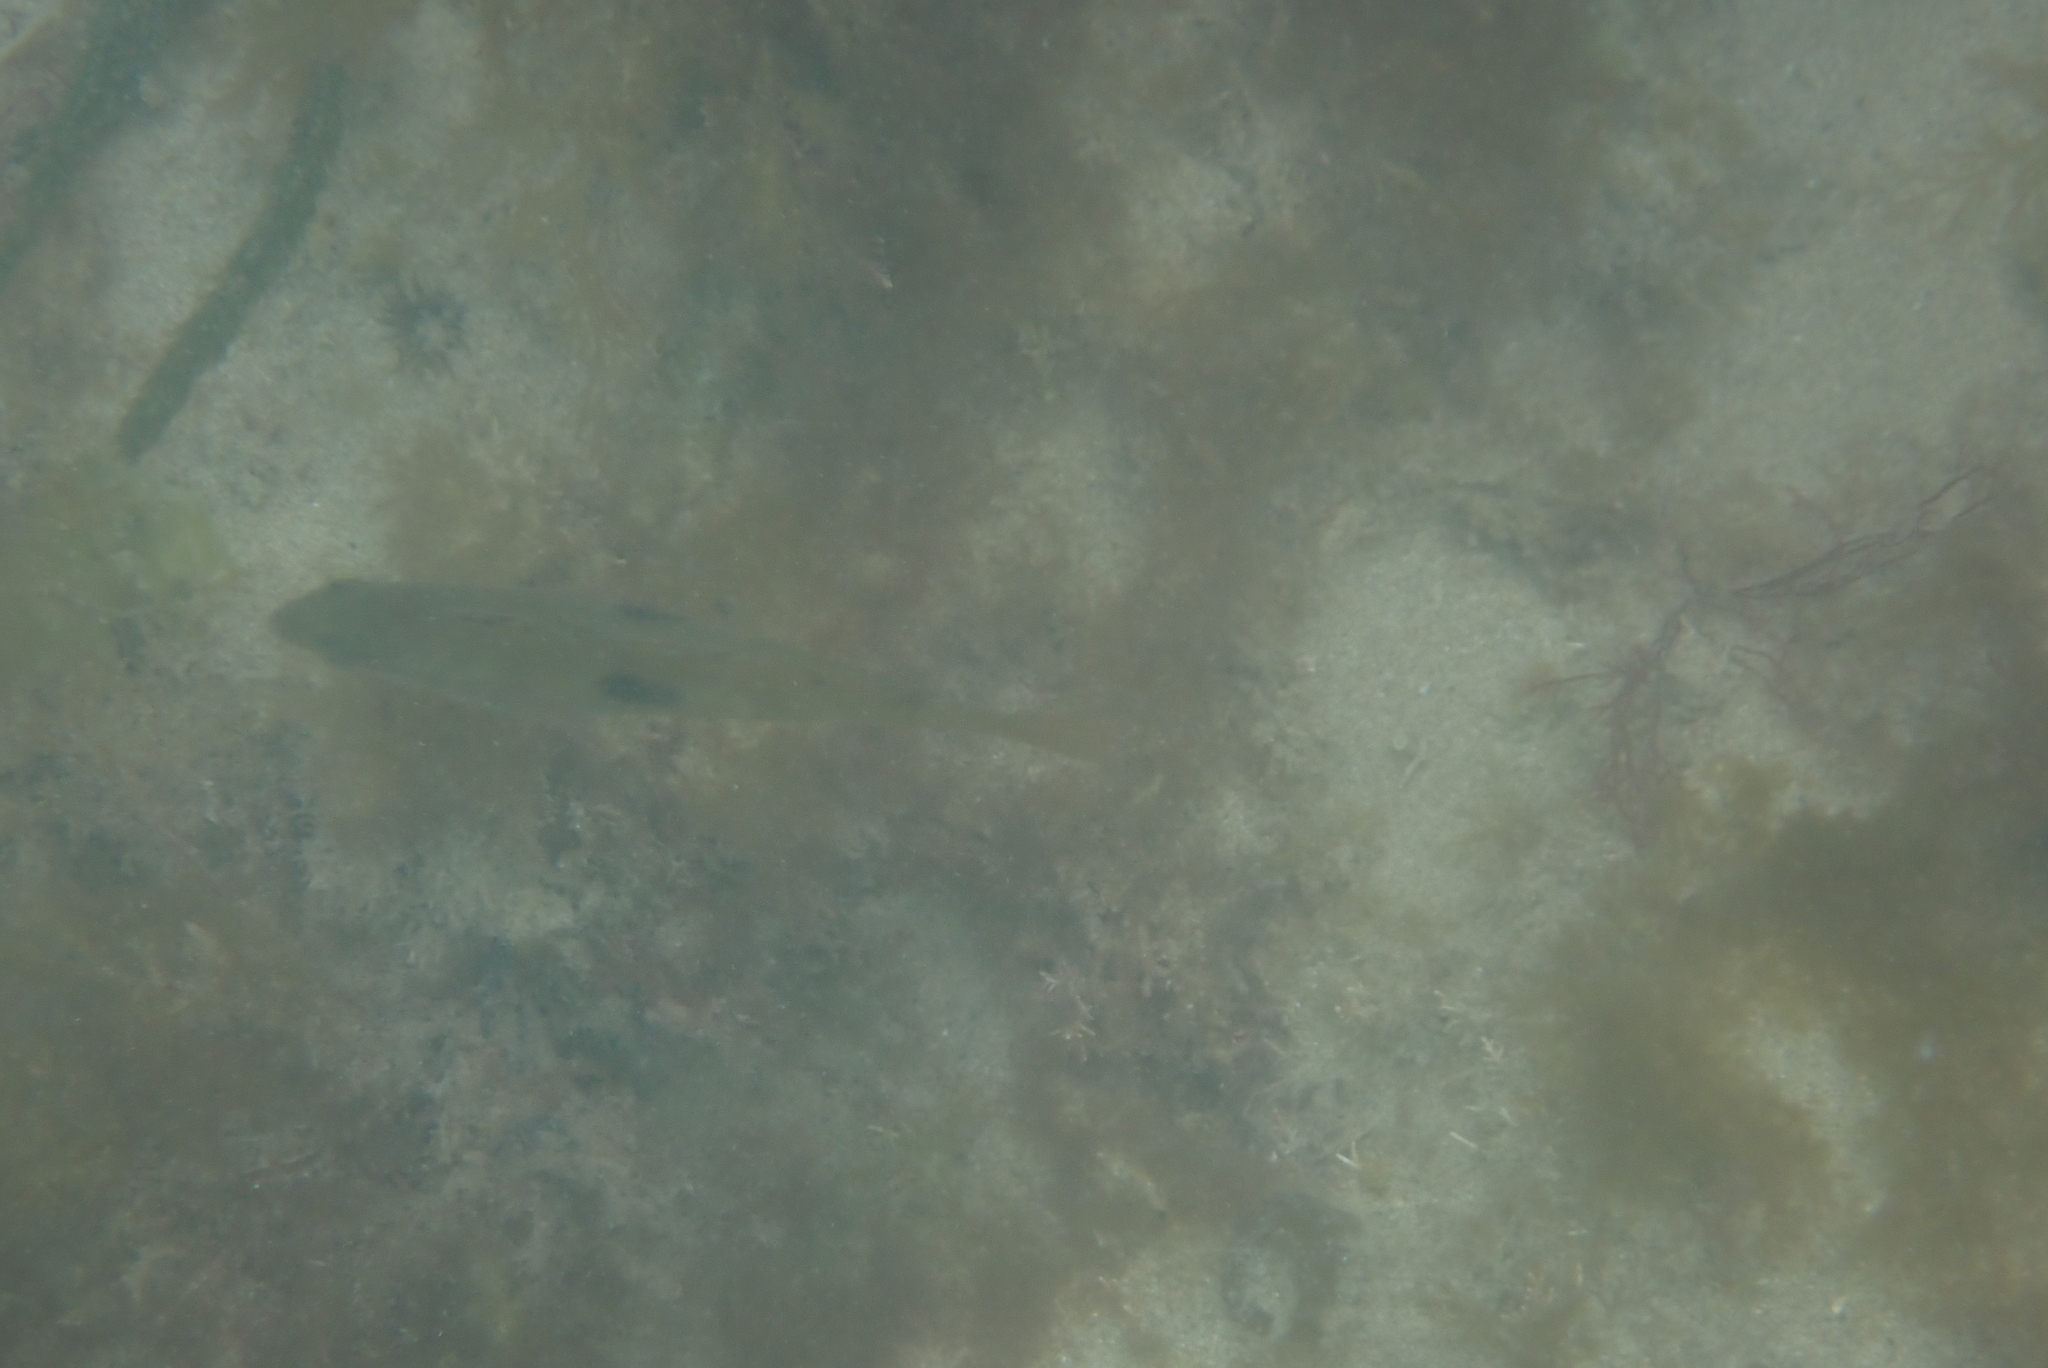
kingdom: Animalia
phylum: Chordata
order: Perciformes
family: Labridae
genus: Notolabrus
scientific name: Notolabrus celidotus
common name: Spotty
